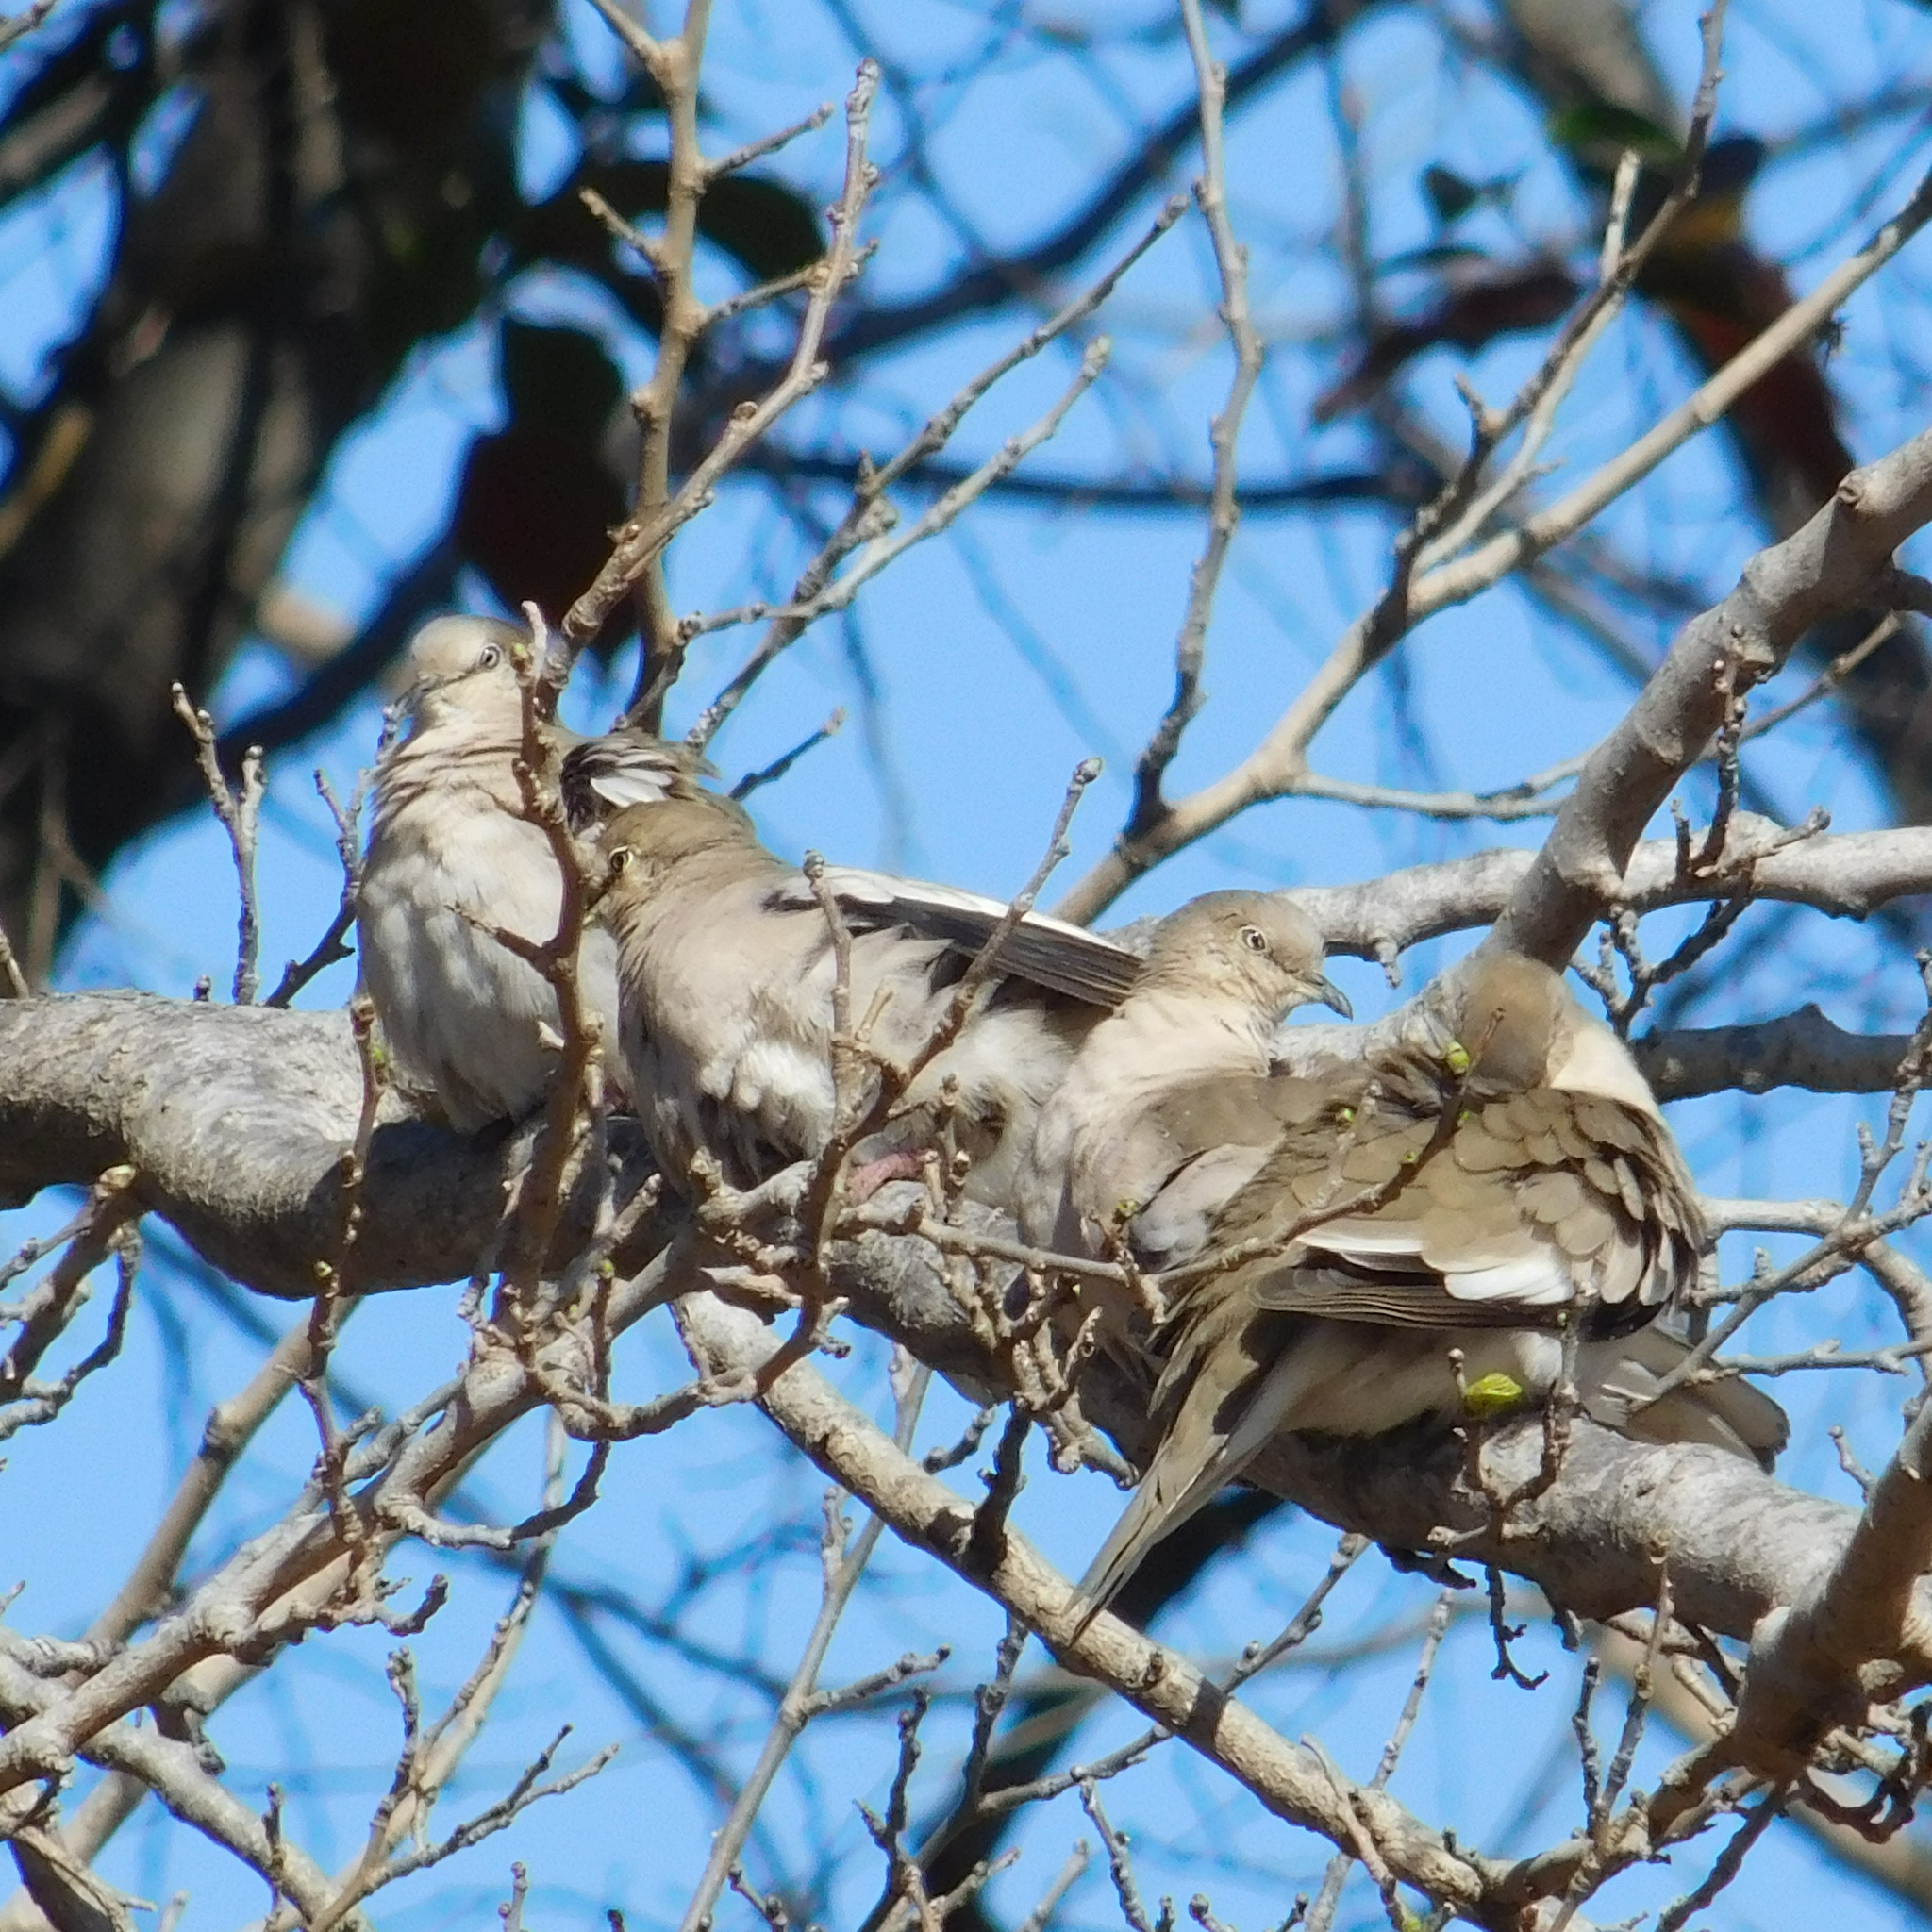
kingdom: Animalia
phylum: Chordata
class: Aves
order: Columbiformes
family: Columbidae
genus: Columbina
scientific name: Columbina picui
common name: Picui ground dove
